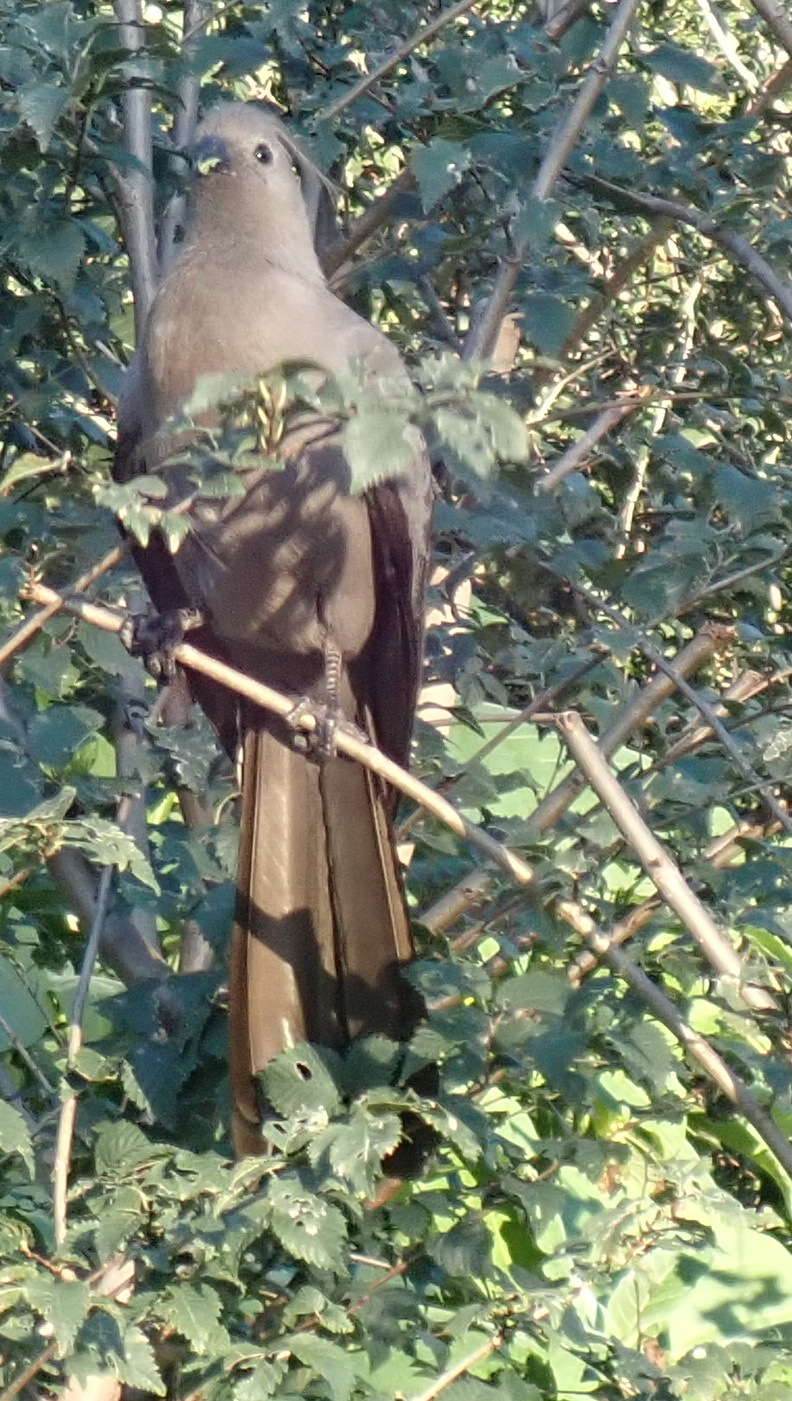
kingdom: Animalia
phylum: Chordata
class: Aves
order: Musophagiformes
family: Musophagidae
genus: Corythaixoides
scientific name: Corythaixoides concolor
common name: Grey go-away-bird
